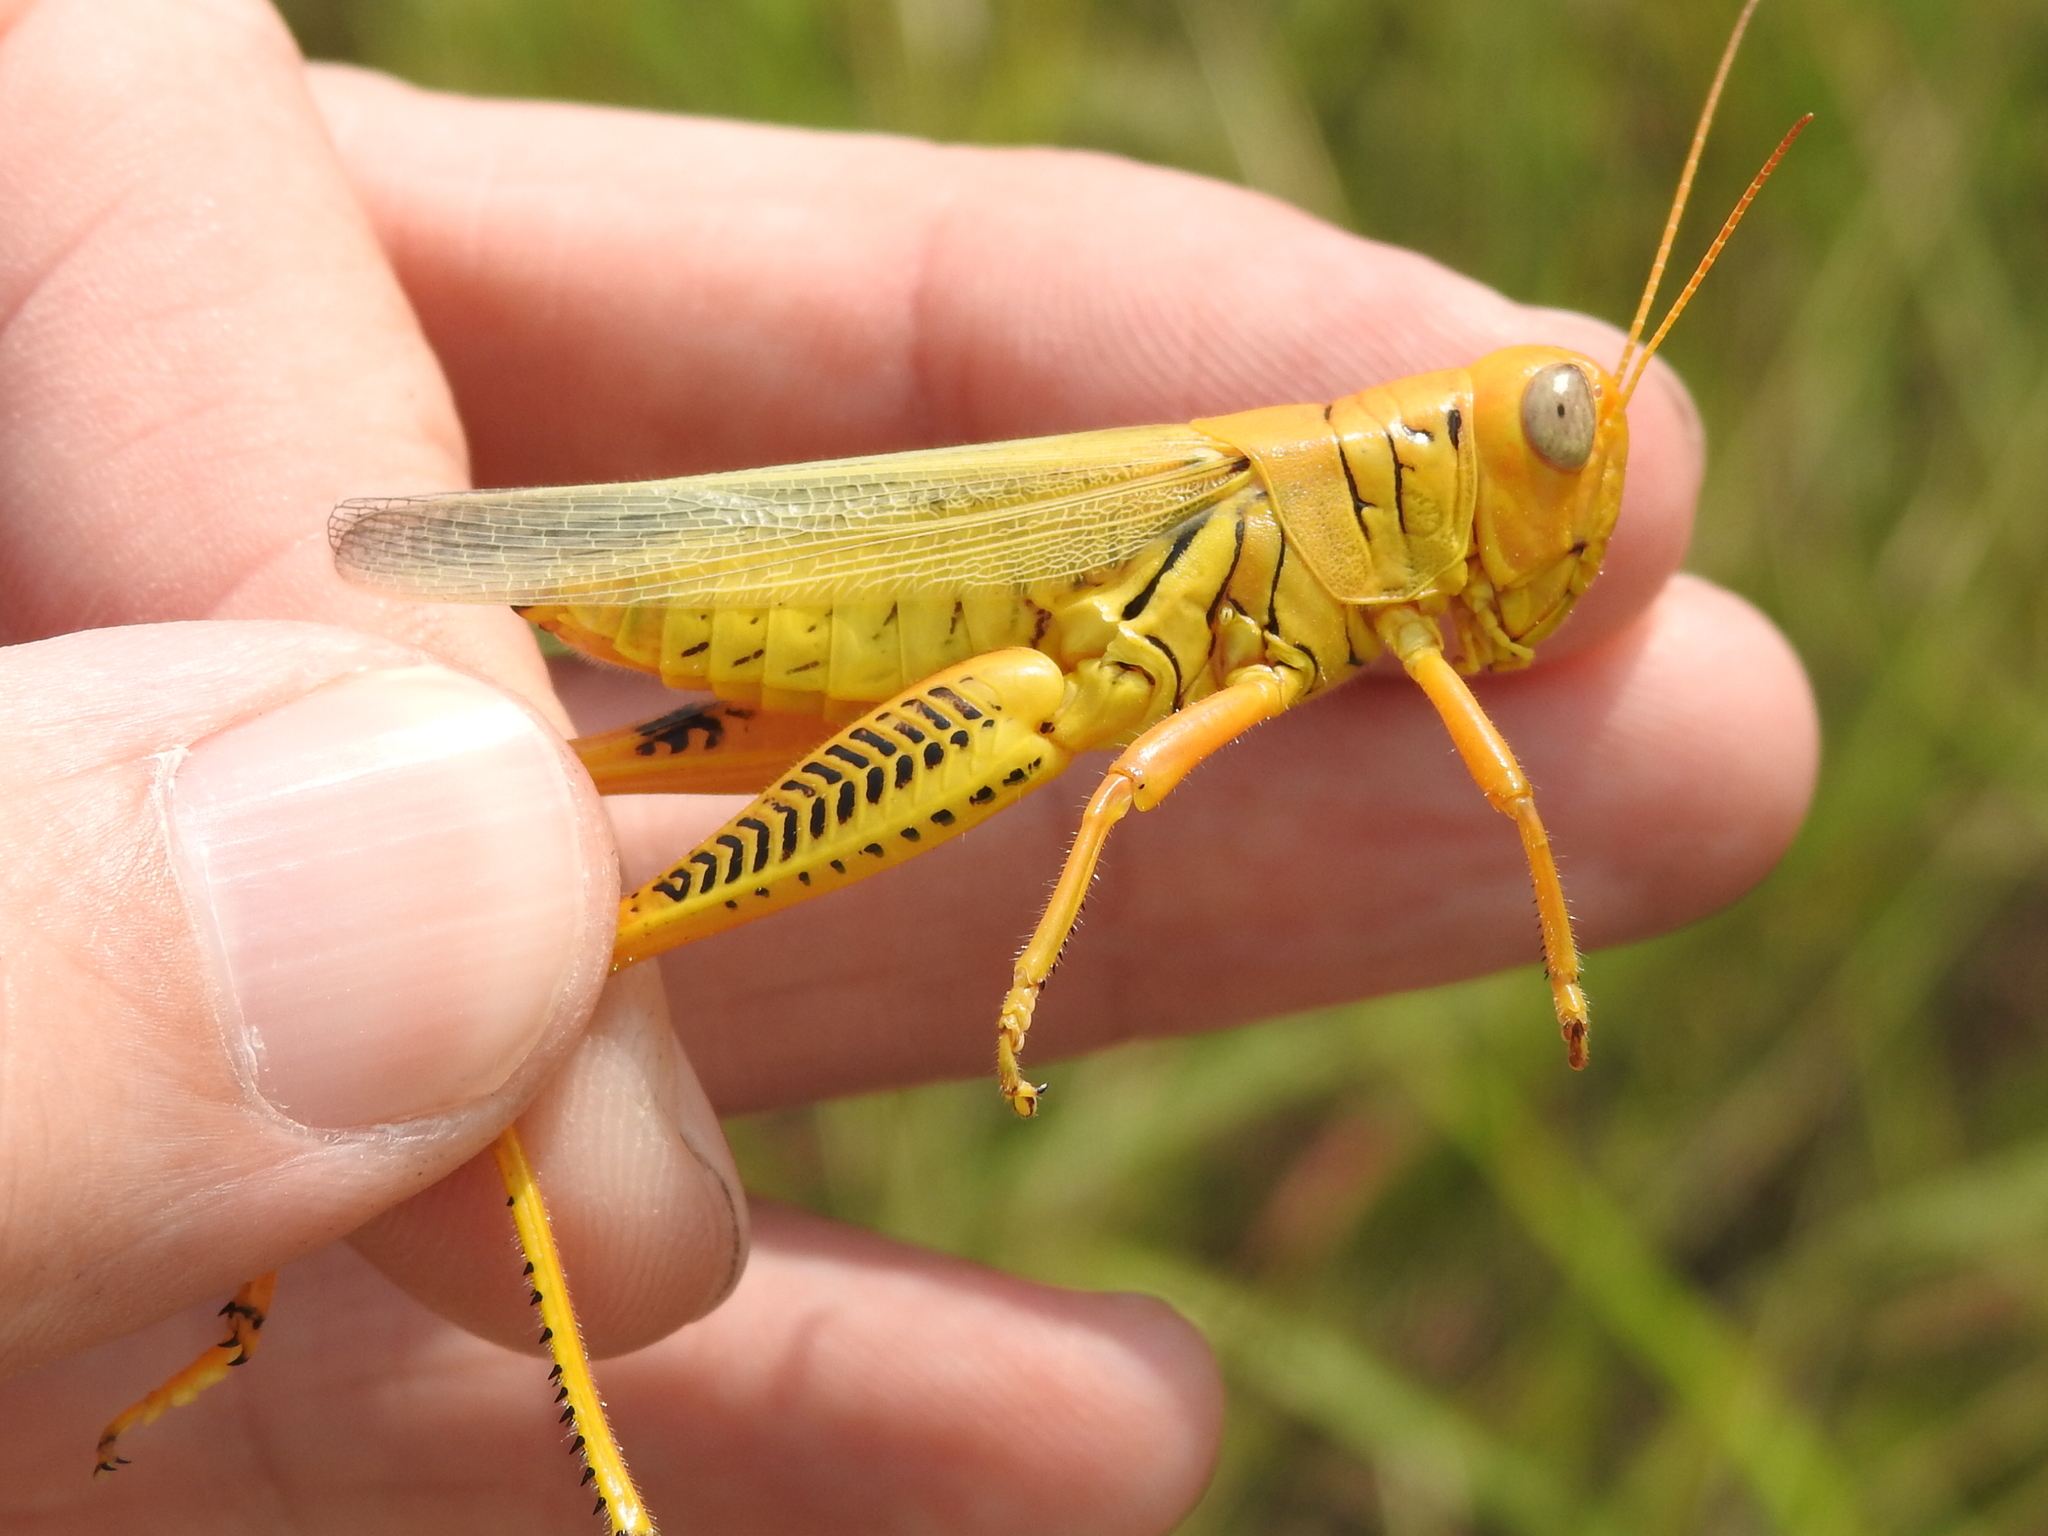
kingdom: Animalia
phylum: Arthropoda
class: Insecta
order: Orthoptera
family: Acrididae
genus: Melanoplus
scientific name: Melanoplus differentialis
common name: Differential grasshopper
